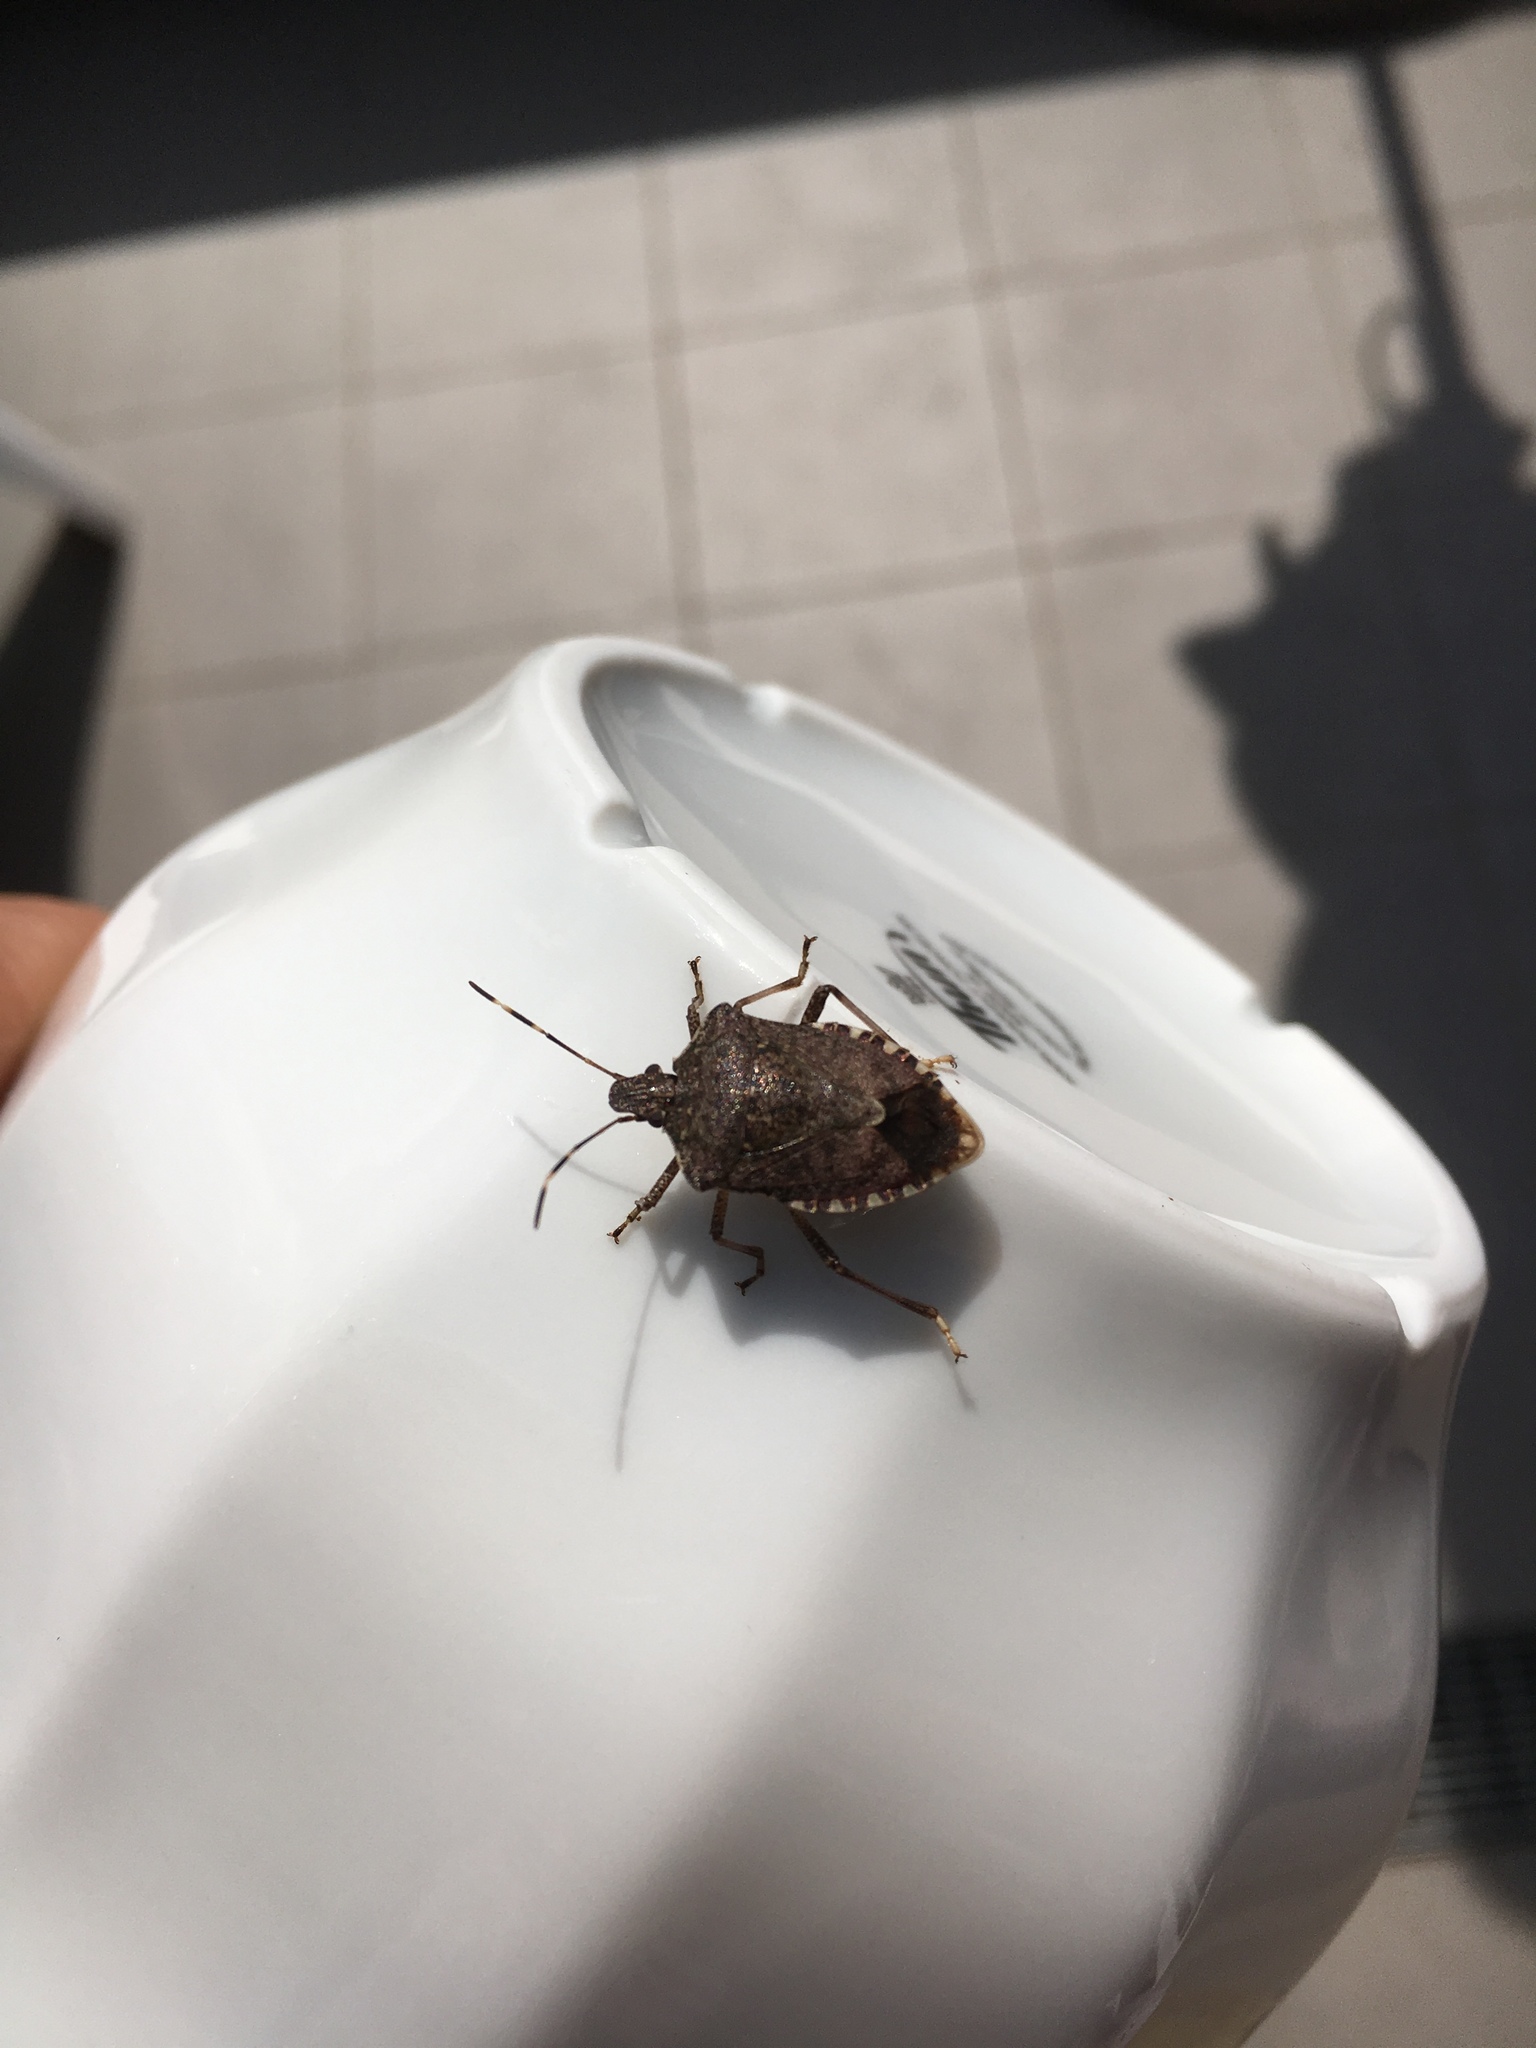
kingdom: Animalia
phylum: Arthropoda
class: Insecta
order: Hemiptera
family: Pentatomidae
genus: Halyomorpha
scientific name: Halyomorpha halys
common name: Brown marmorated stink bug
